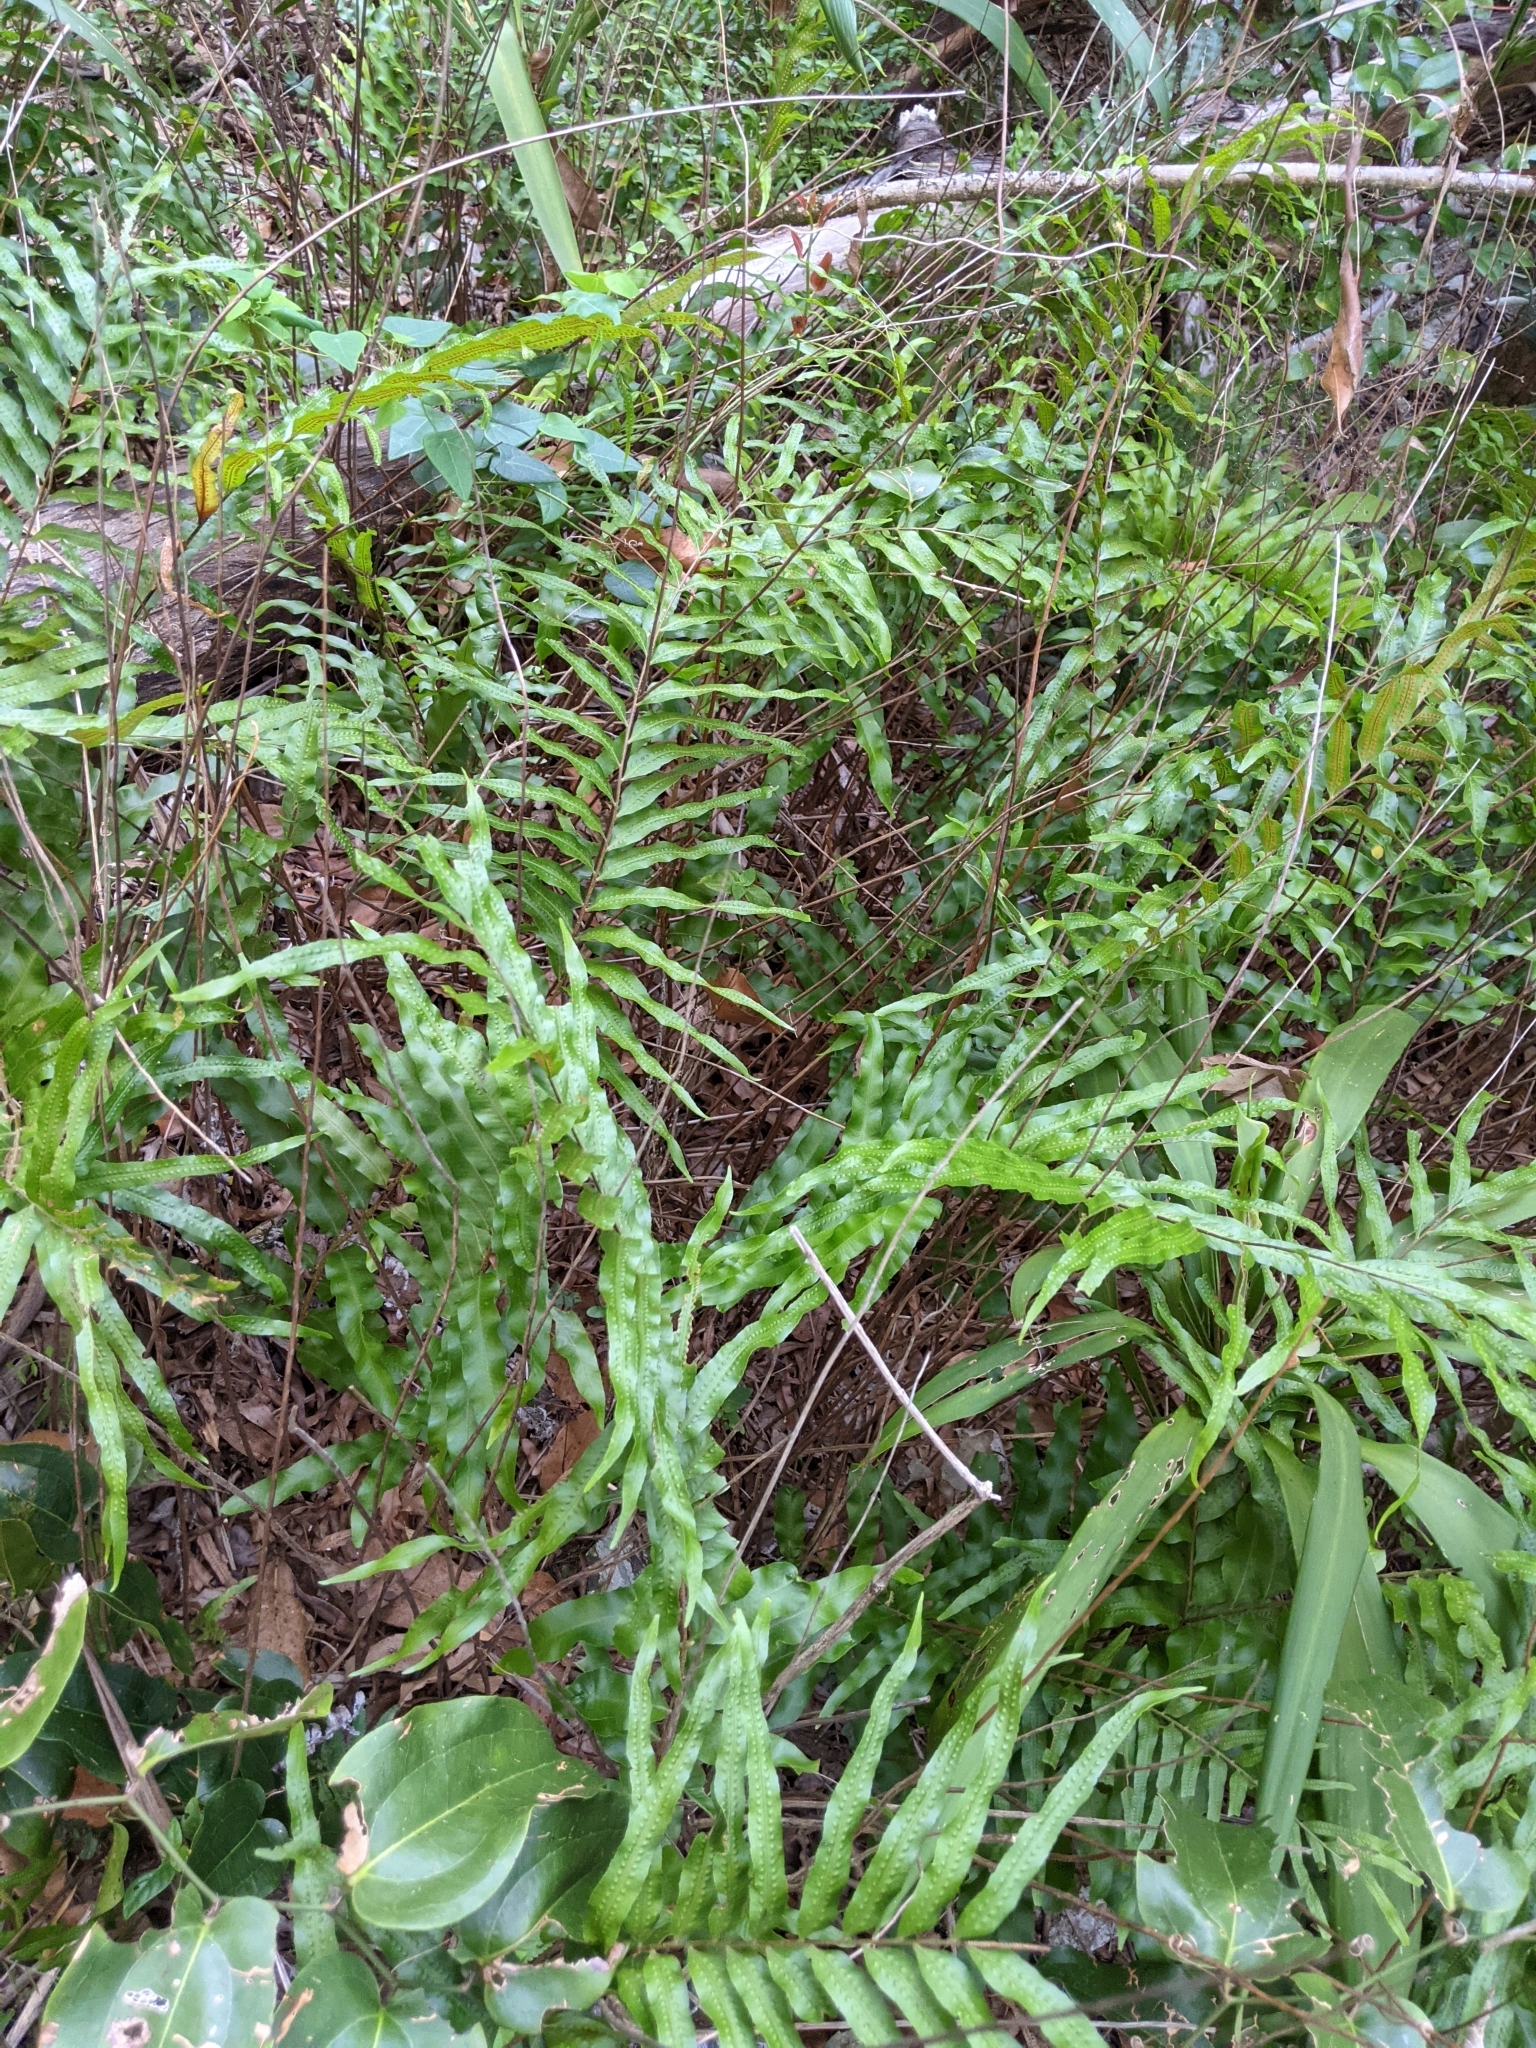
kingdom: Plantae
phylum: Tracheophyta
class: Polypodiopsida
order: Polypodiales
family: Polypodiaceae
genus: Drynaria
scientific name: Drynaria rigidula
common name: Basket fern
